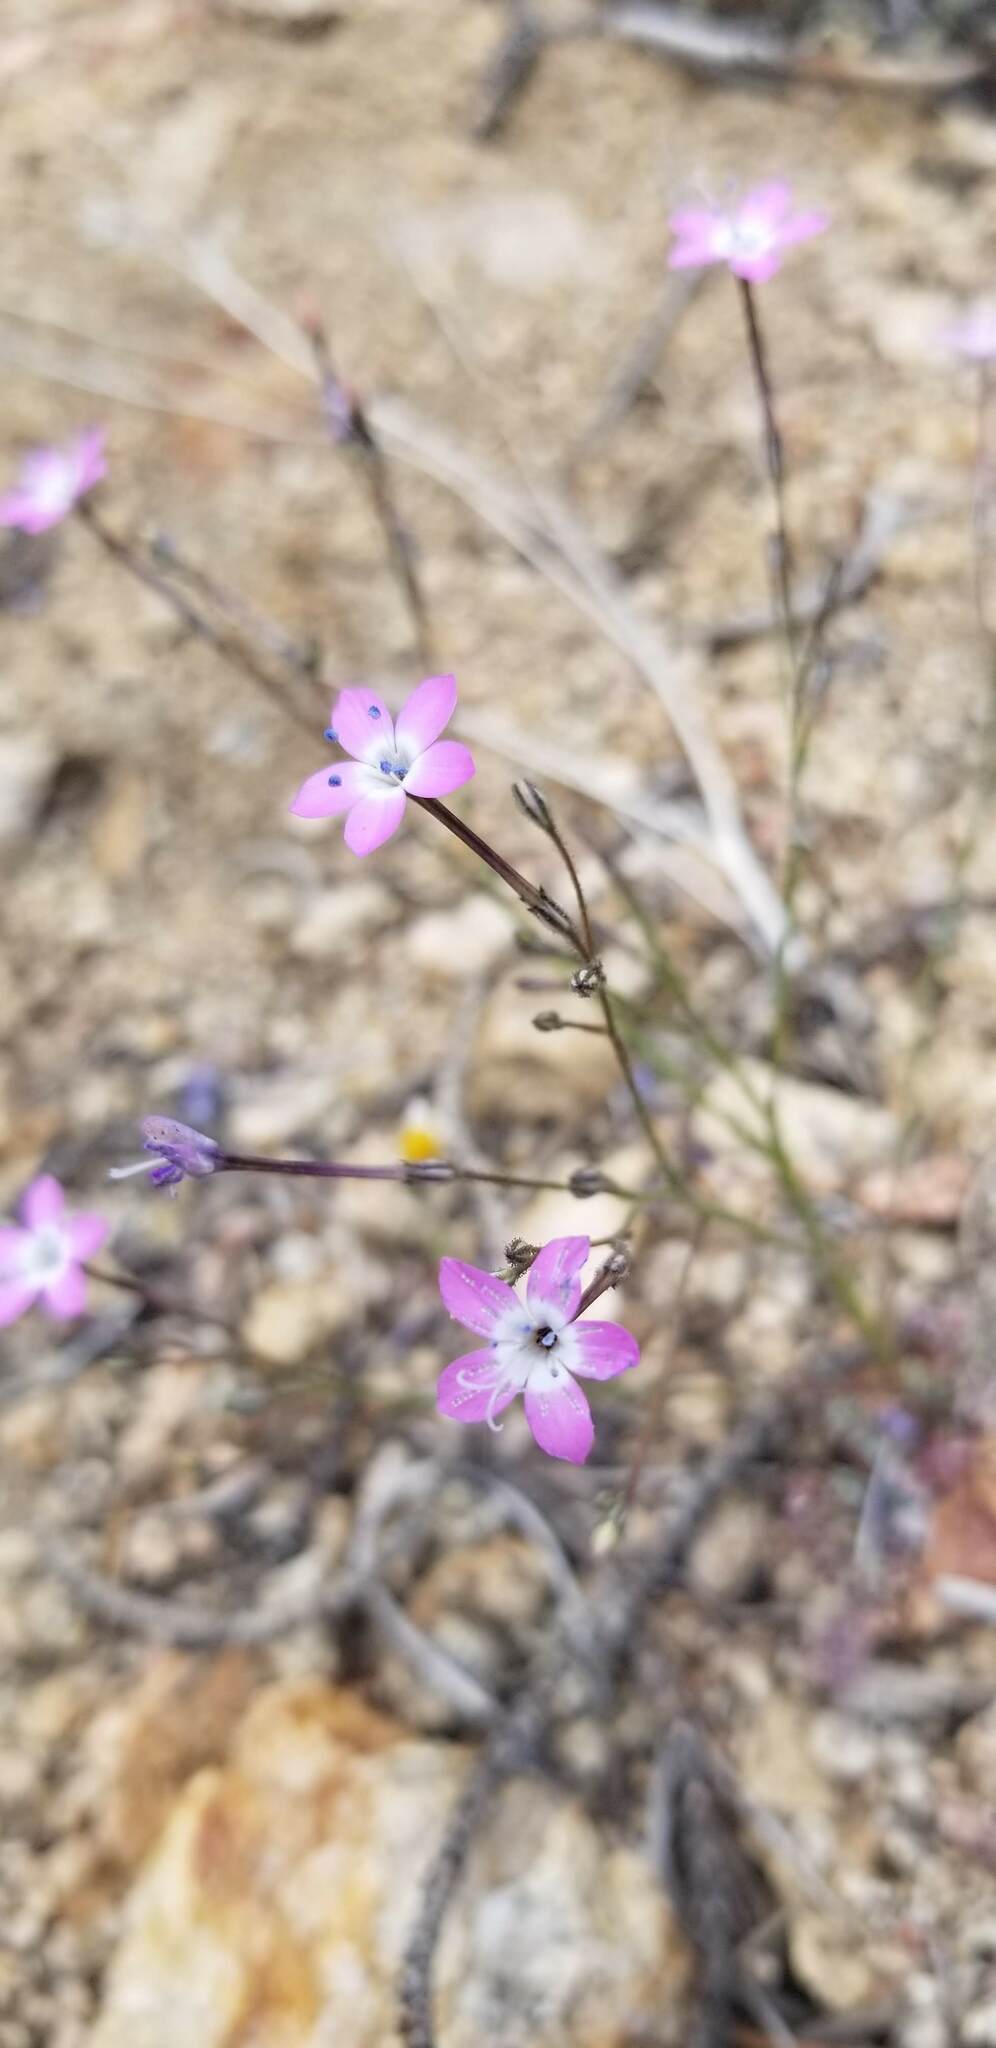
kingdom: Plantae
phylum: Tracheophyta
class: Magnoliopsida
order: Ericales
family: Polemoniaceae
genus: Gilia
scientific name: Gilia leptantha
